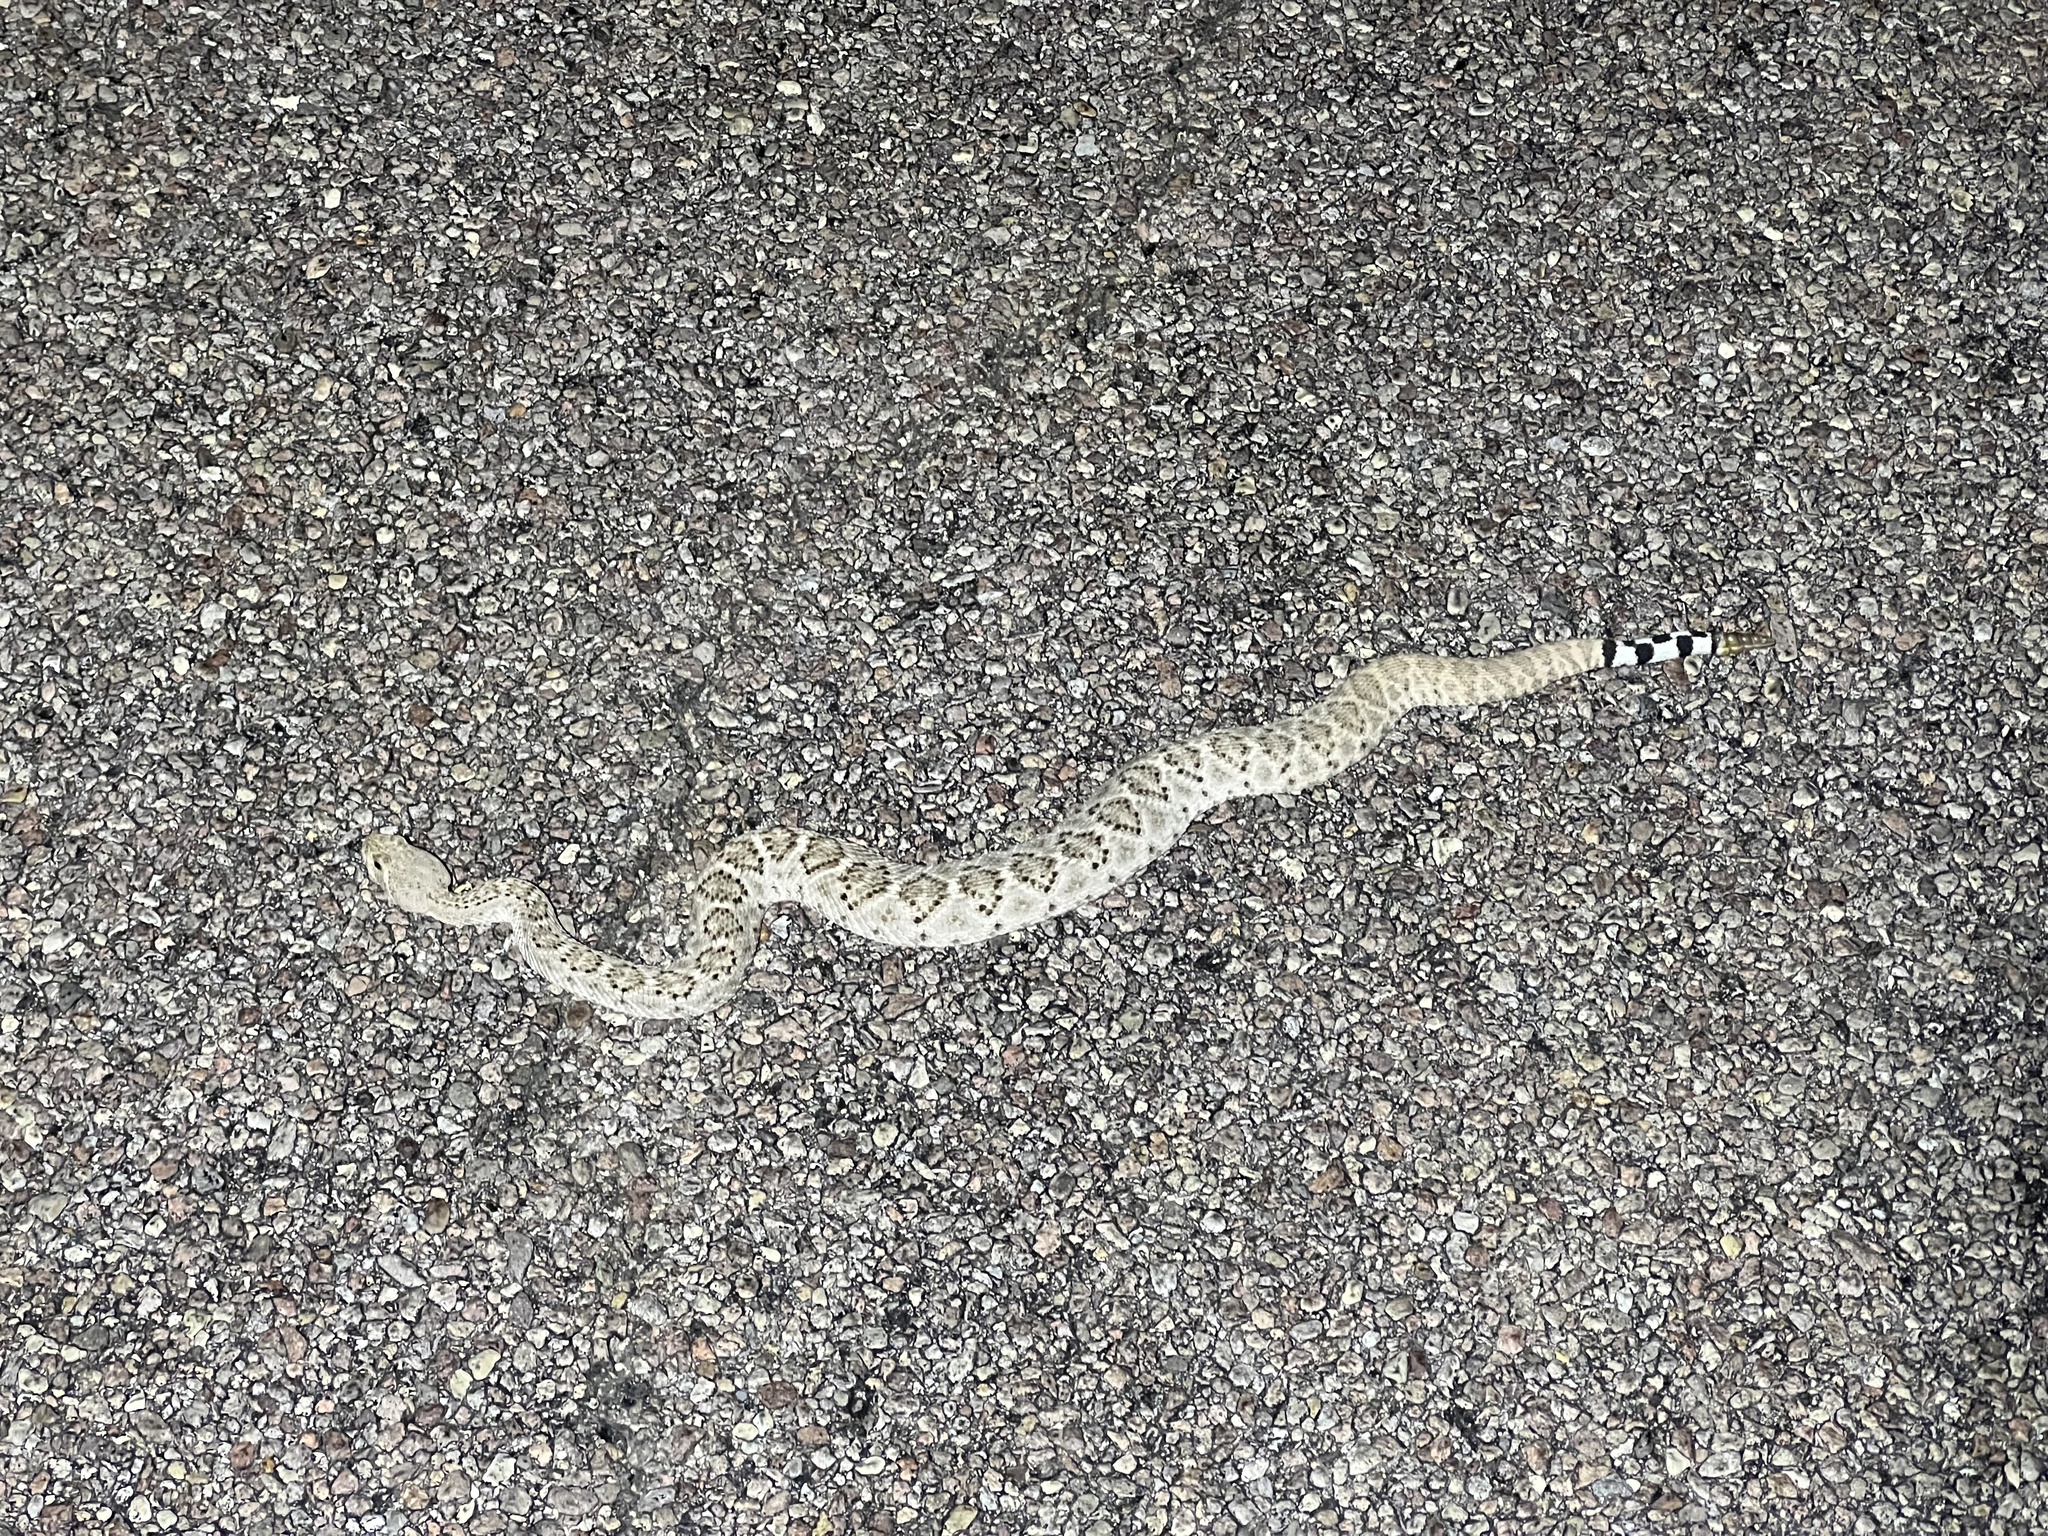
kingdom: Animalia
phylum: Chordata
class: Squamata
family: Viperidae
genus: Crotalus
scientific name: Crotalus atrox
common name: Western diamond-backed rattlesnake
